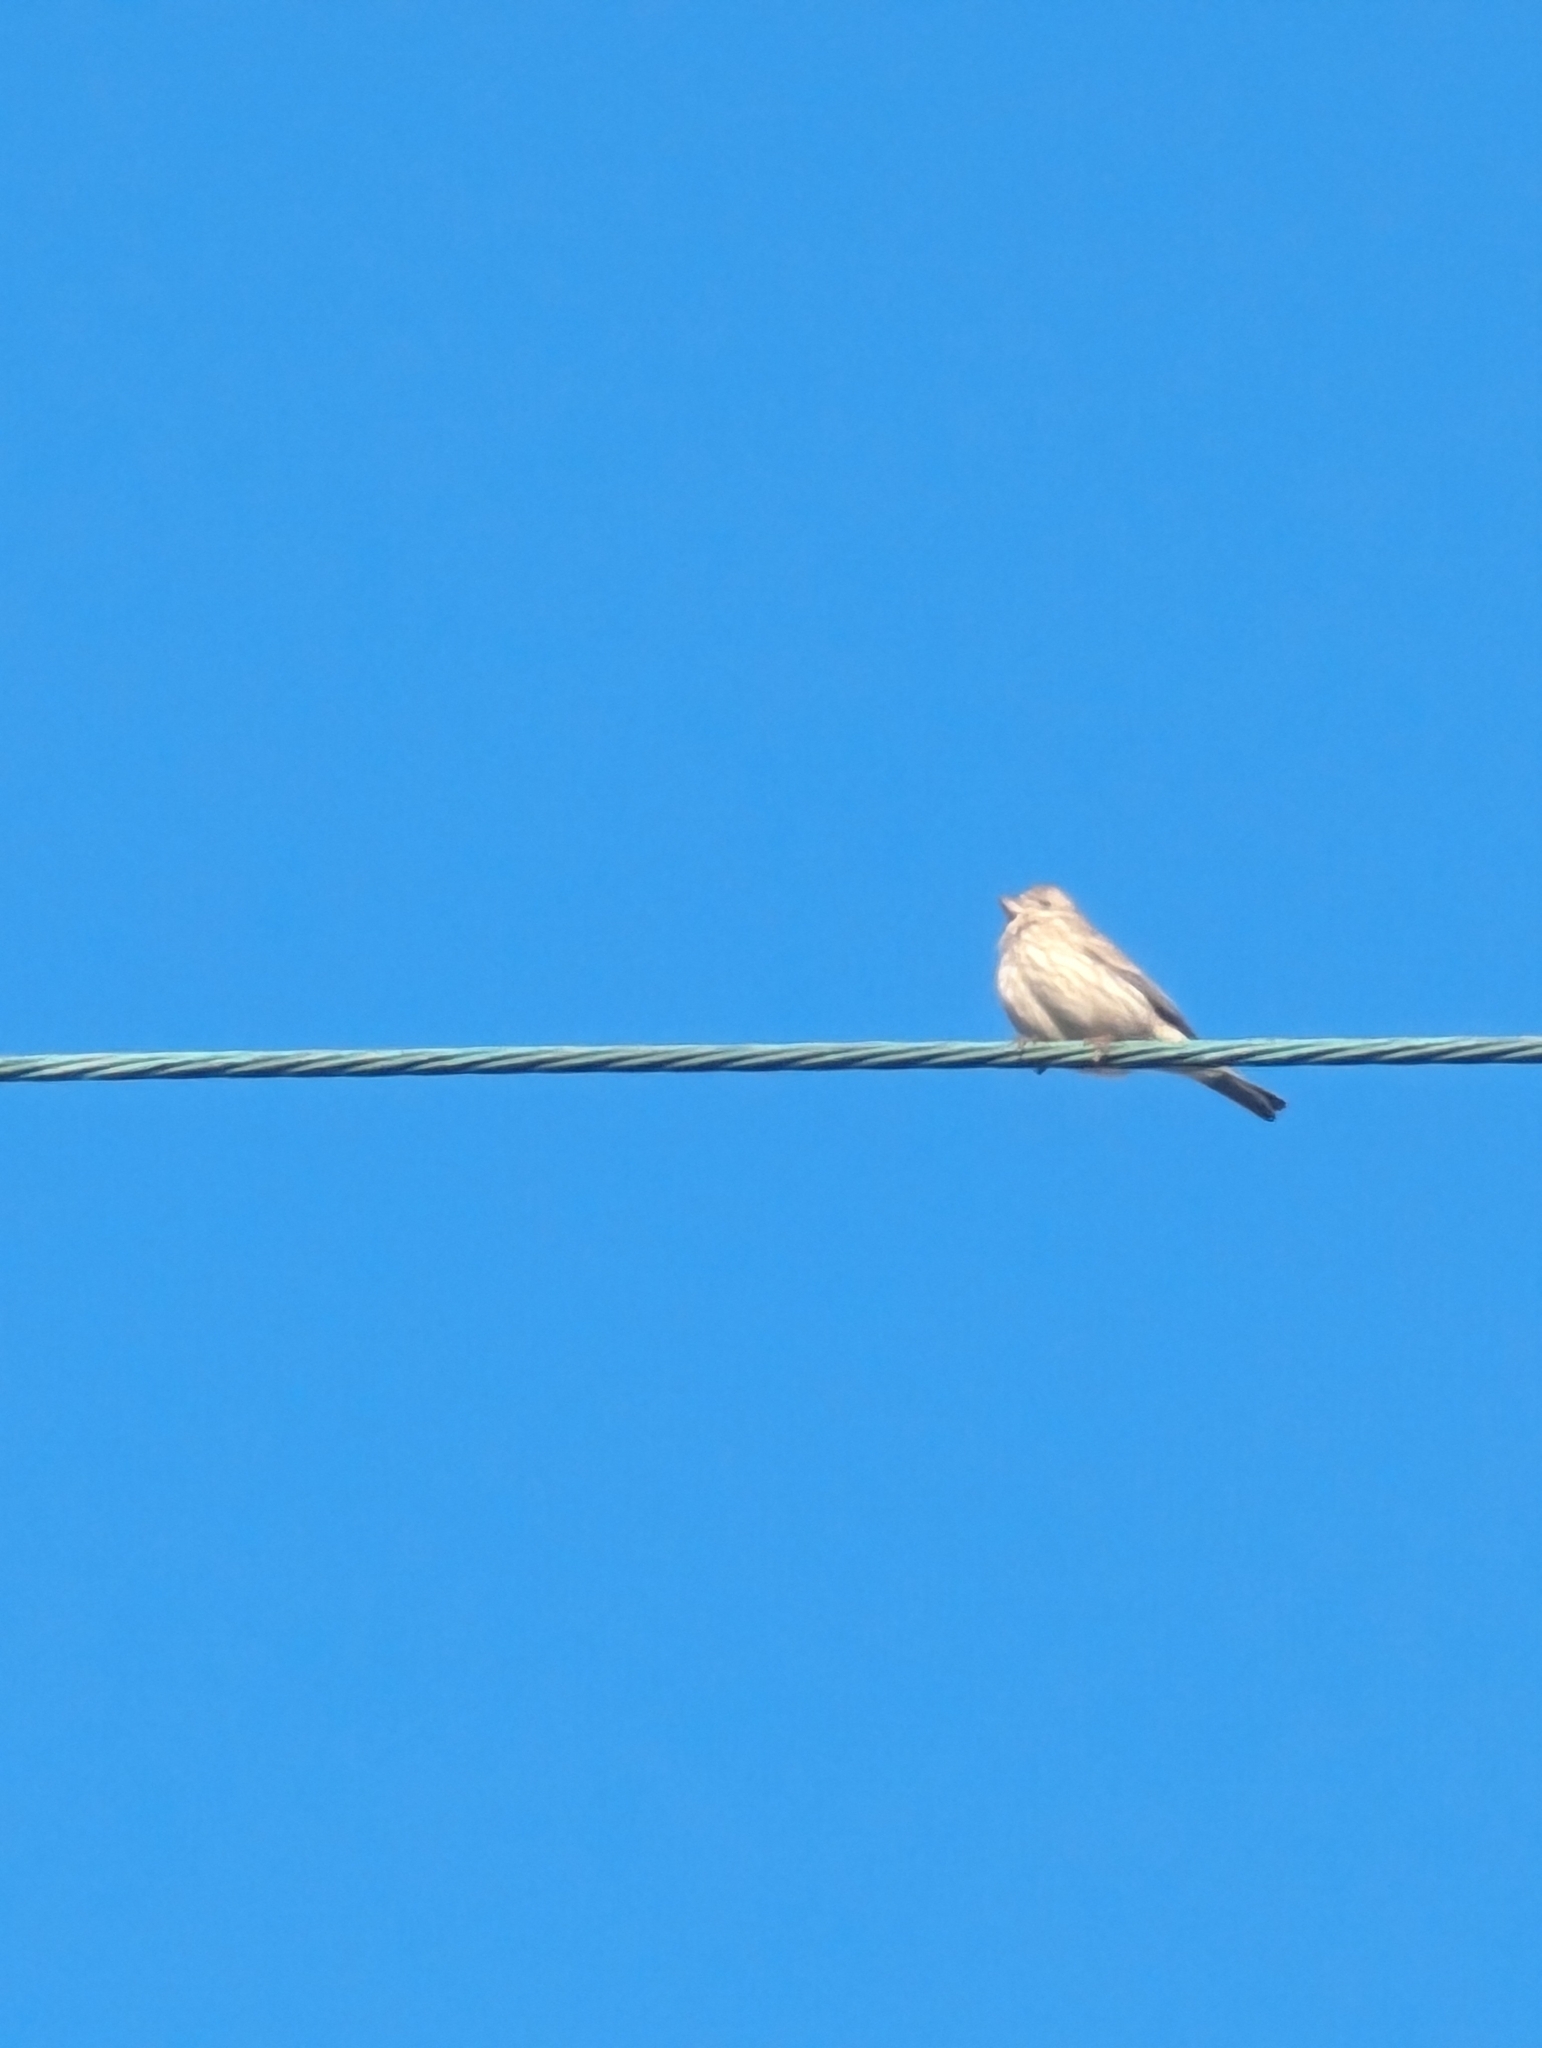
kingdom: Animalia
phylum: Chordata
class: Aves
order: Passeriformes
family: Fringillidae
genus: Haemorhous
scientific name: Haemorhous mexicanus
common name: House finch
